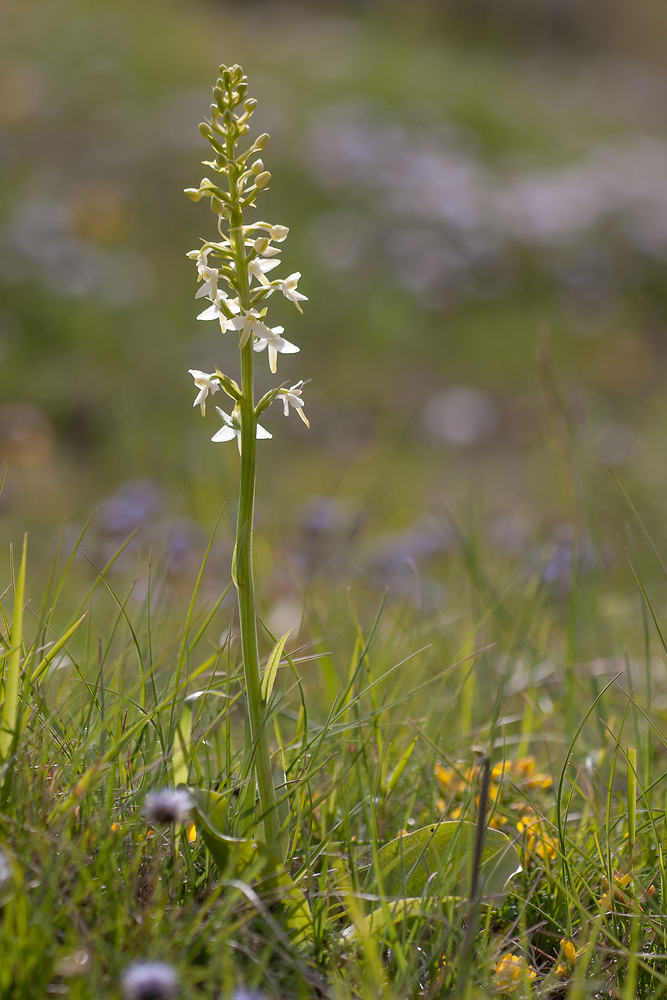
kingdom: Plantae
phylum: Tracheophyta
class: Liliopsida
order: Asparagales
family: Orchidaceae
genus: Platanthera
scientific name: Platanthera bifolia
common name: Lesser butterfly-orchid
